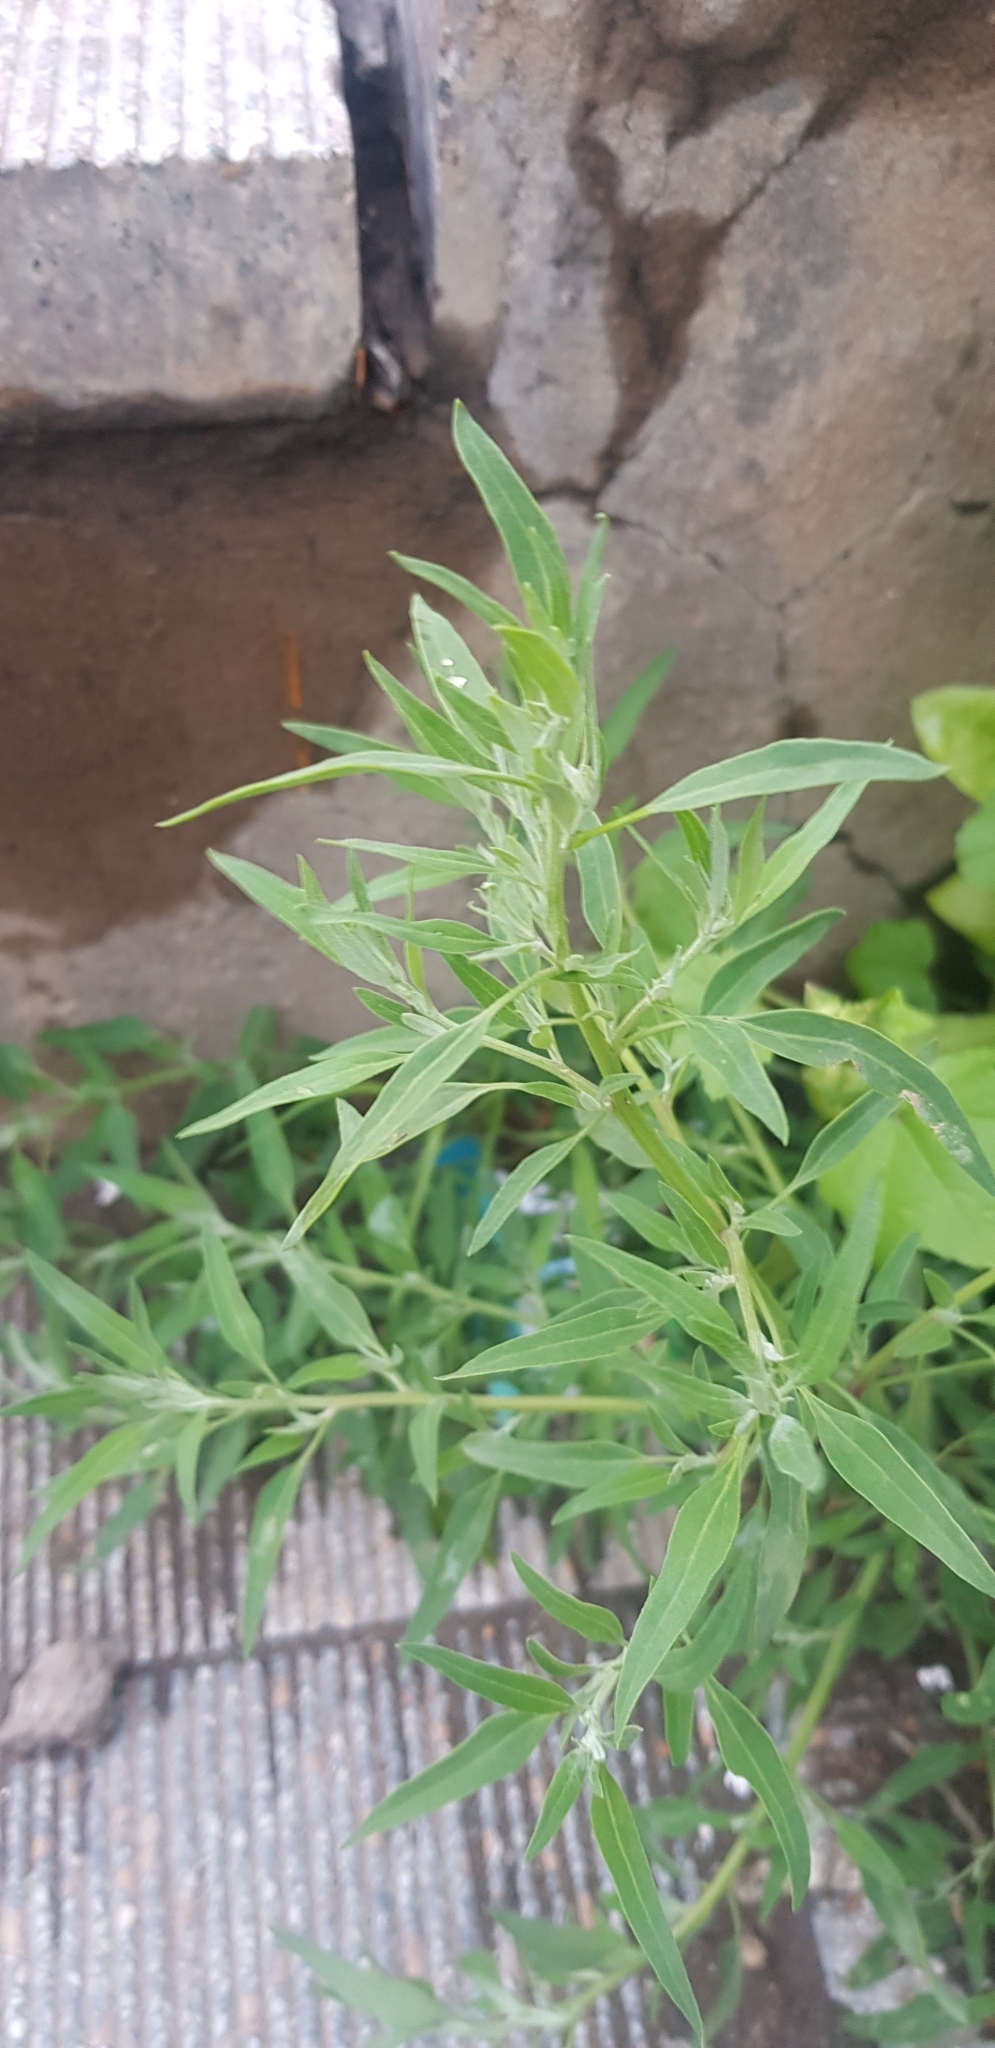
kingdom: Plantae
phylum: Tracheophyta
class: Magnoliopsida
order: Caryophyllales
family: Amaranthaceae
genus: Bassia
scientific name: Bassia scoparia
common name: Belvedere
